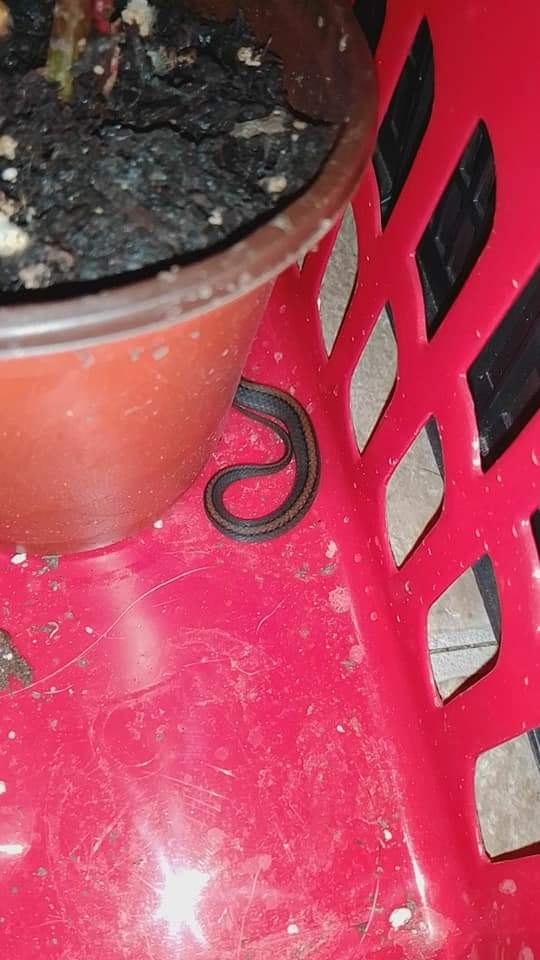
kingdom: Animalia
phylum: Chordata
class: Squamata
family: Colubridae
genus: Storeria
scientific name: Storeria occipitomaculata
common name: Redbelly snake
